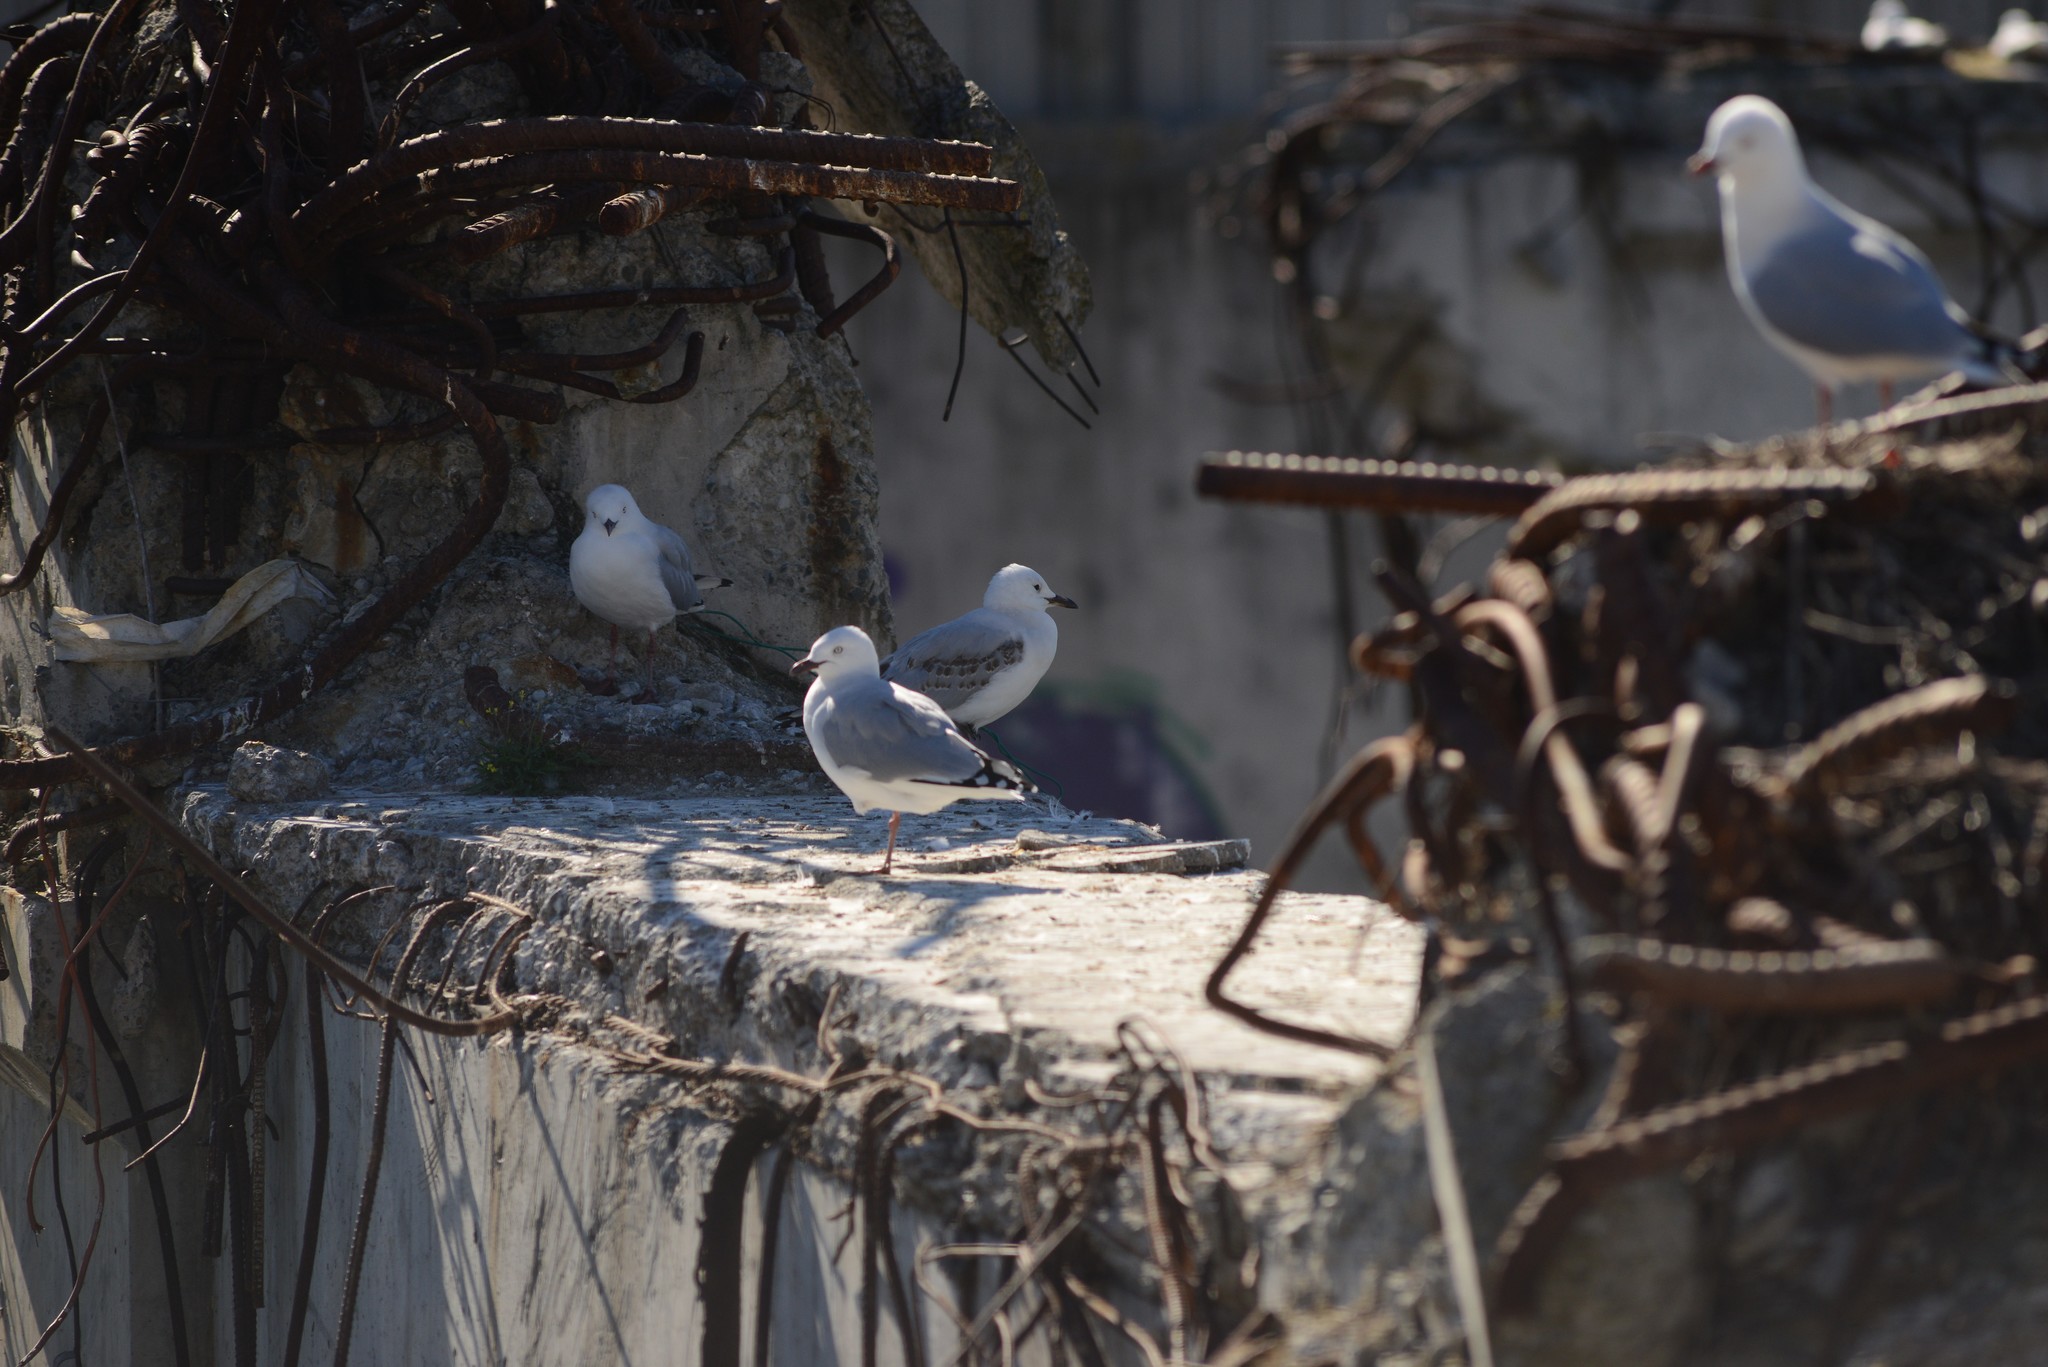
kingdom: Animalia
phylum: Chordata
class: Aves
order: Charadriiformes
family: Laridae
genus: Chroicocephalus
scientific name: Chroicocephalus novaehollandiae
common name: Silver gull
